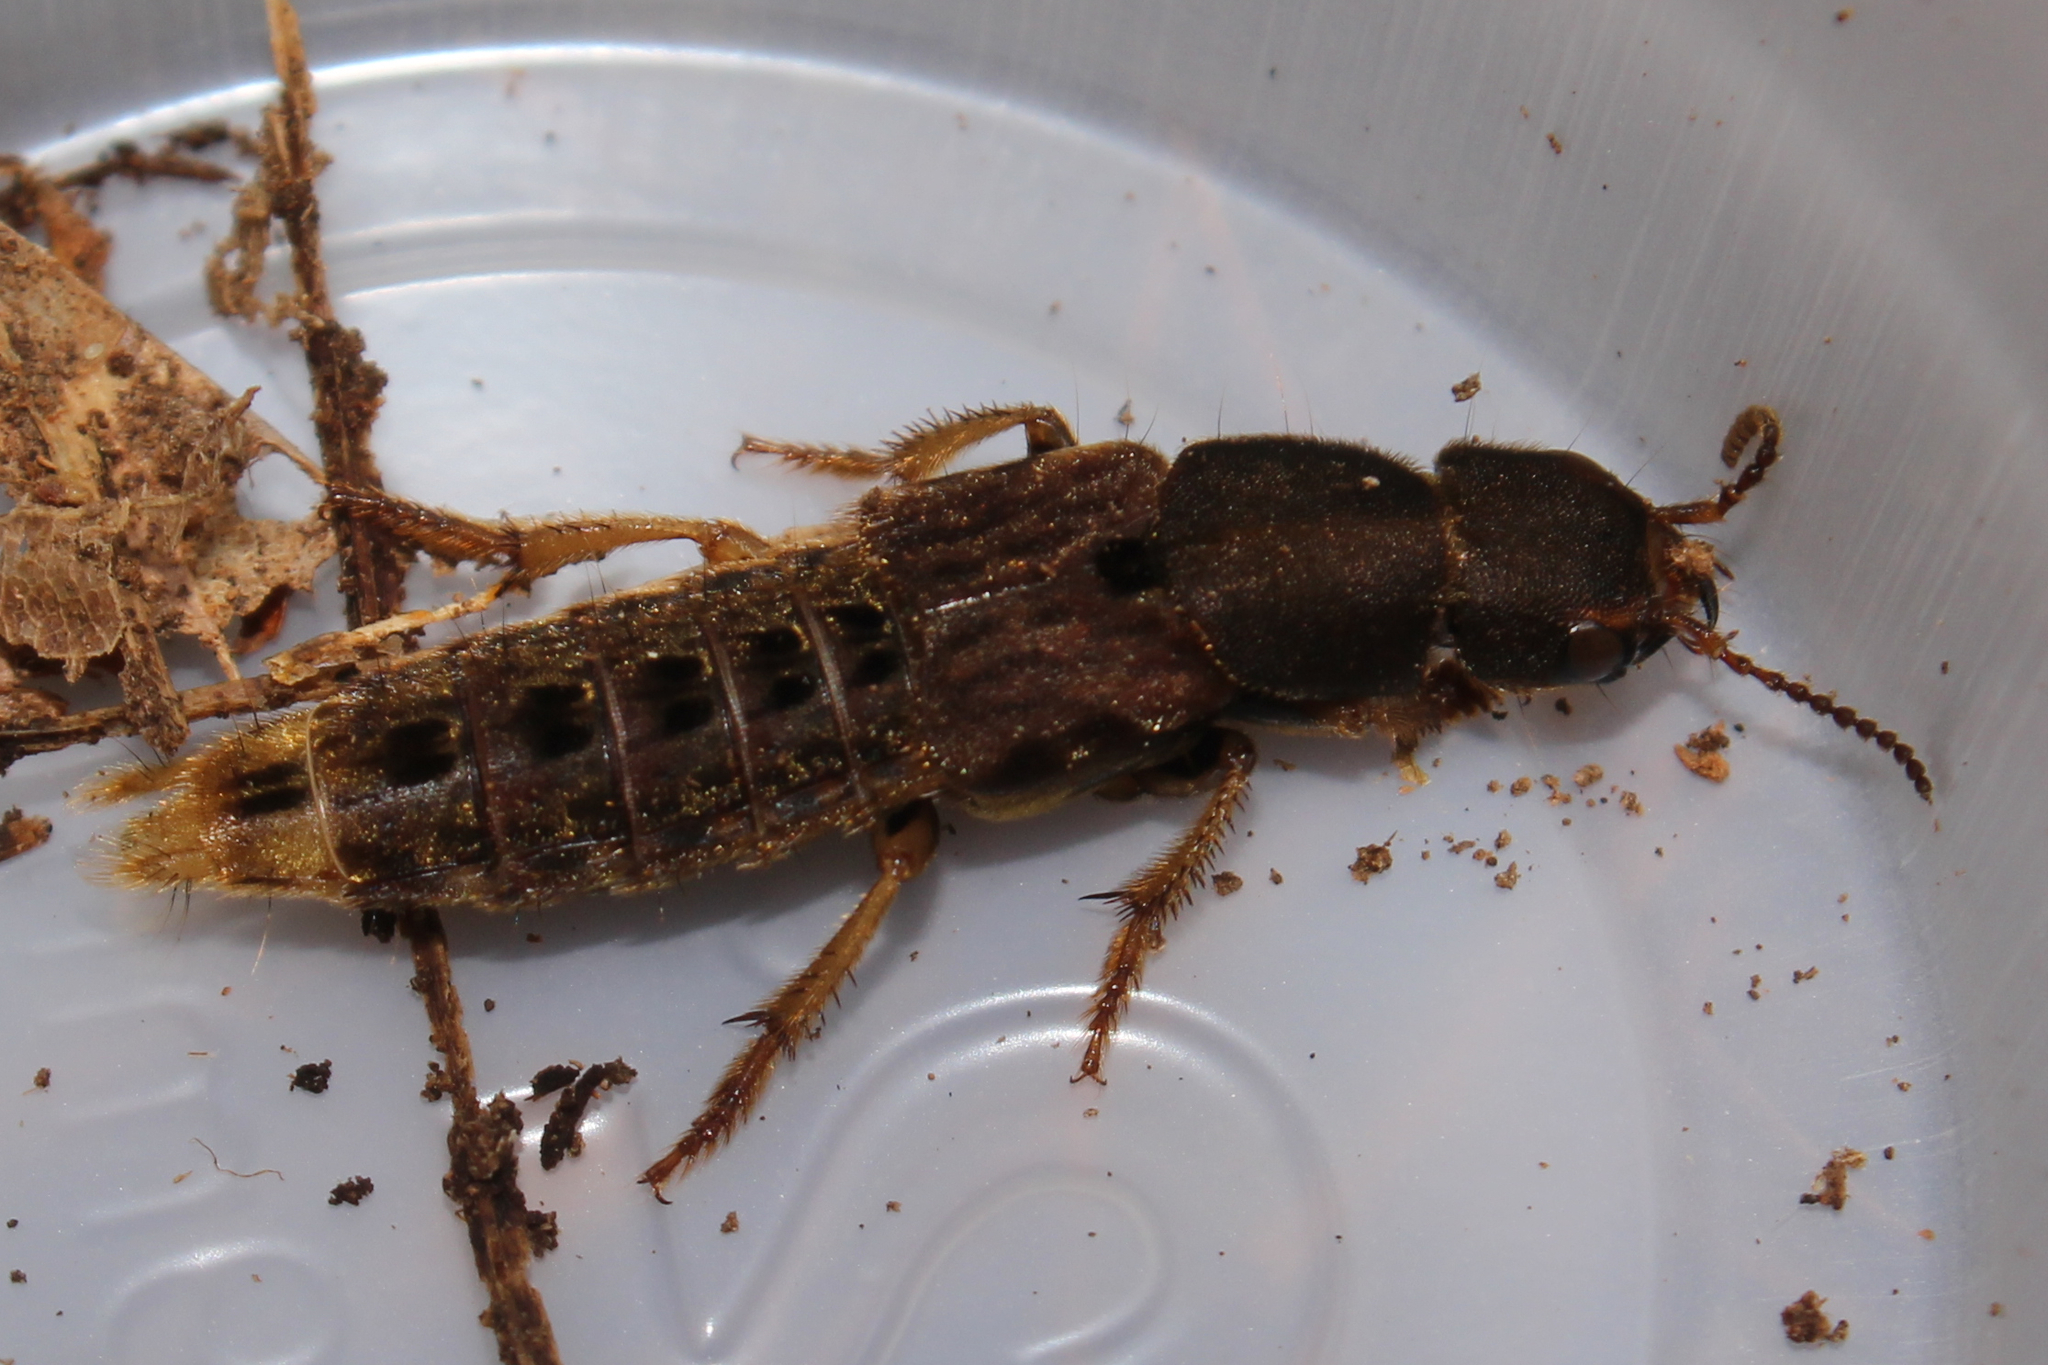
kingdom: Animalia
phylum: Arthropoda
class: Insecta
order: Coleoptera
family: Staphylinidae
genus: Platydracus
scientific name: Platydracus maculosus
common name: Brown rove beetle
